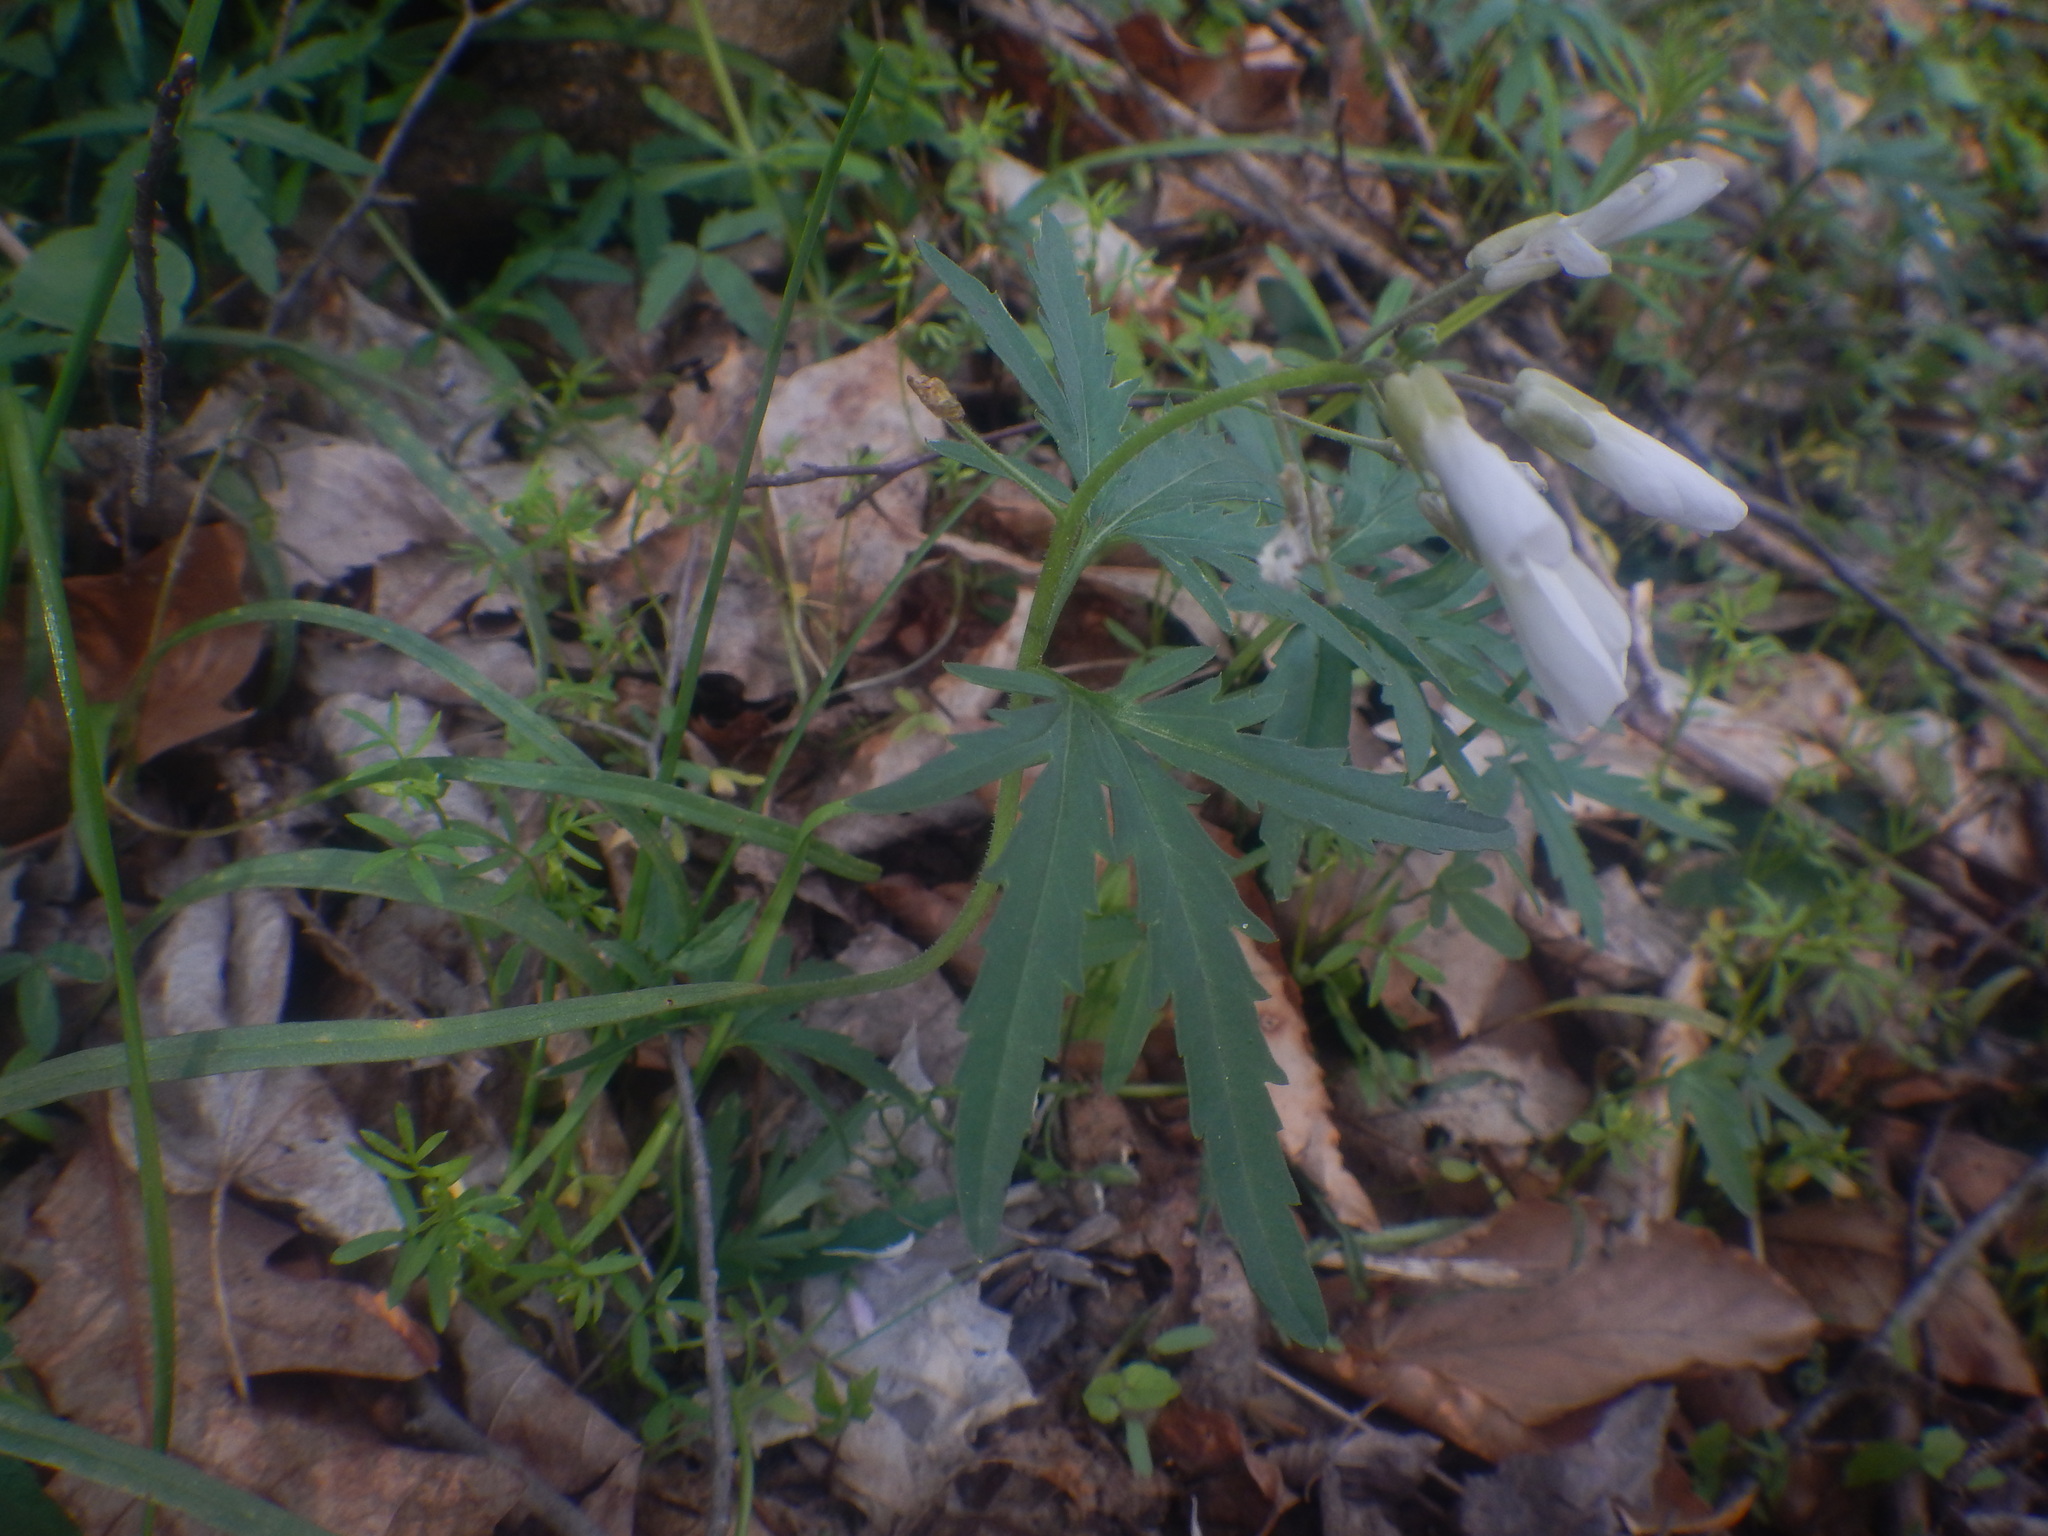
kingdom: Plantae
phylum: Tracheophyta
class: Magnoliopsida
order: Brassicales
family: Brassicaceae
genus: Cardamine
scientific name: Cardamine concatenata
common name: Cut-leaf toothcup
